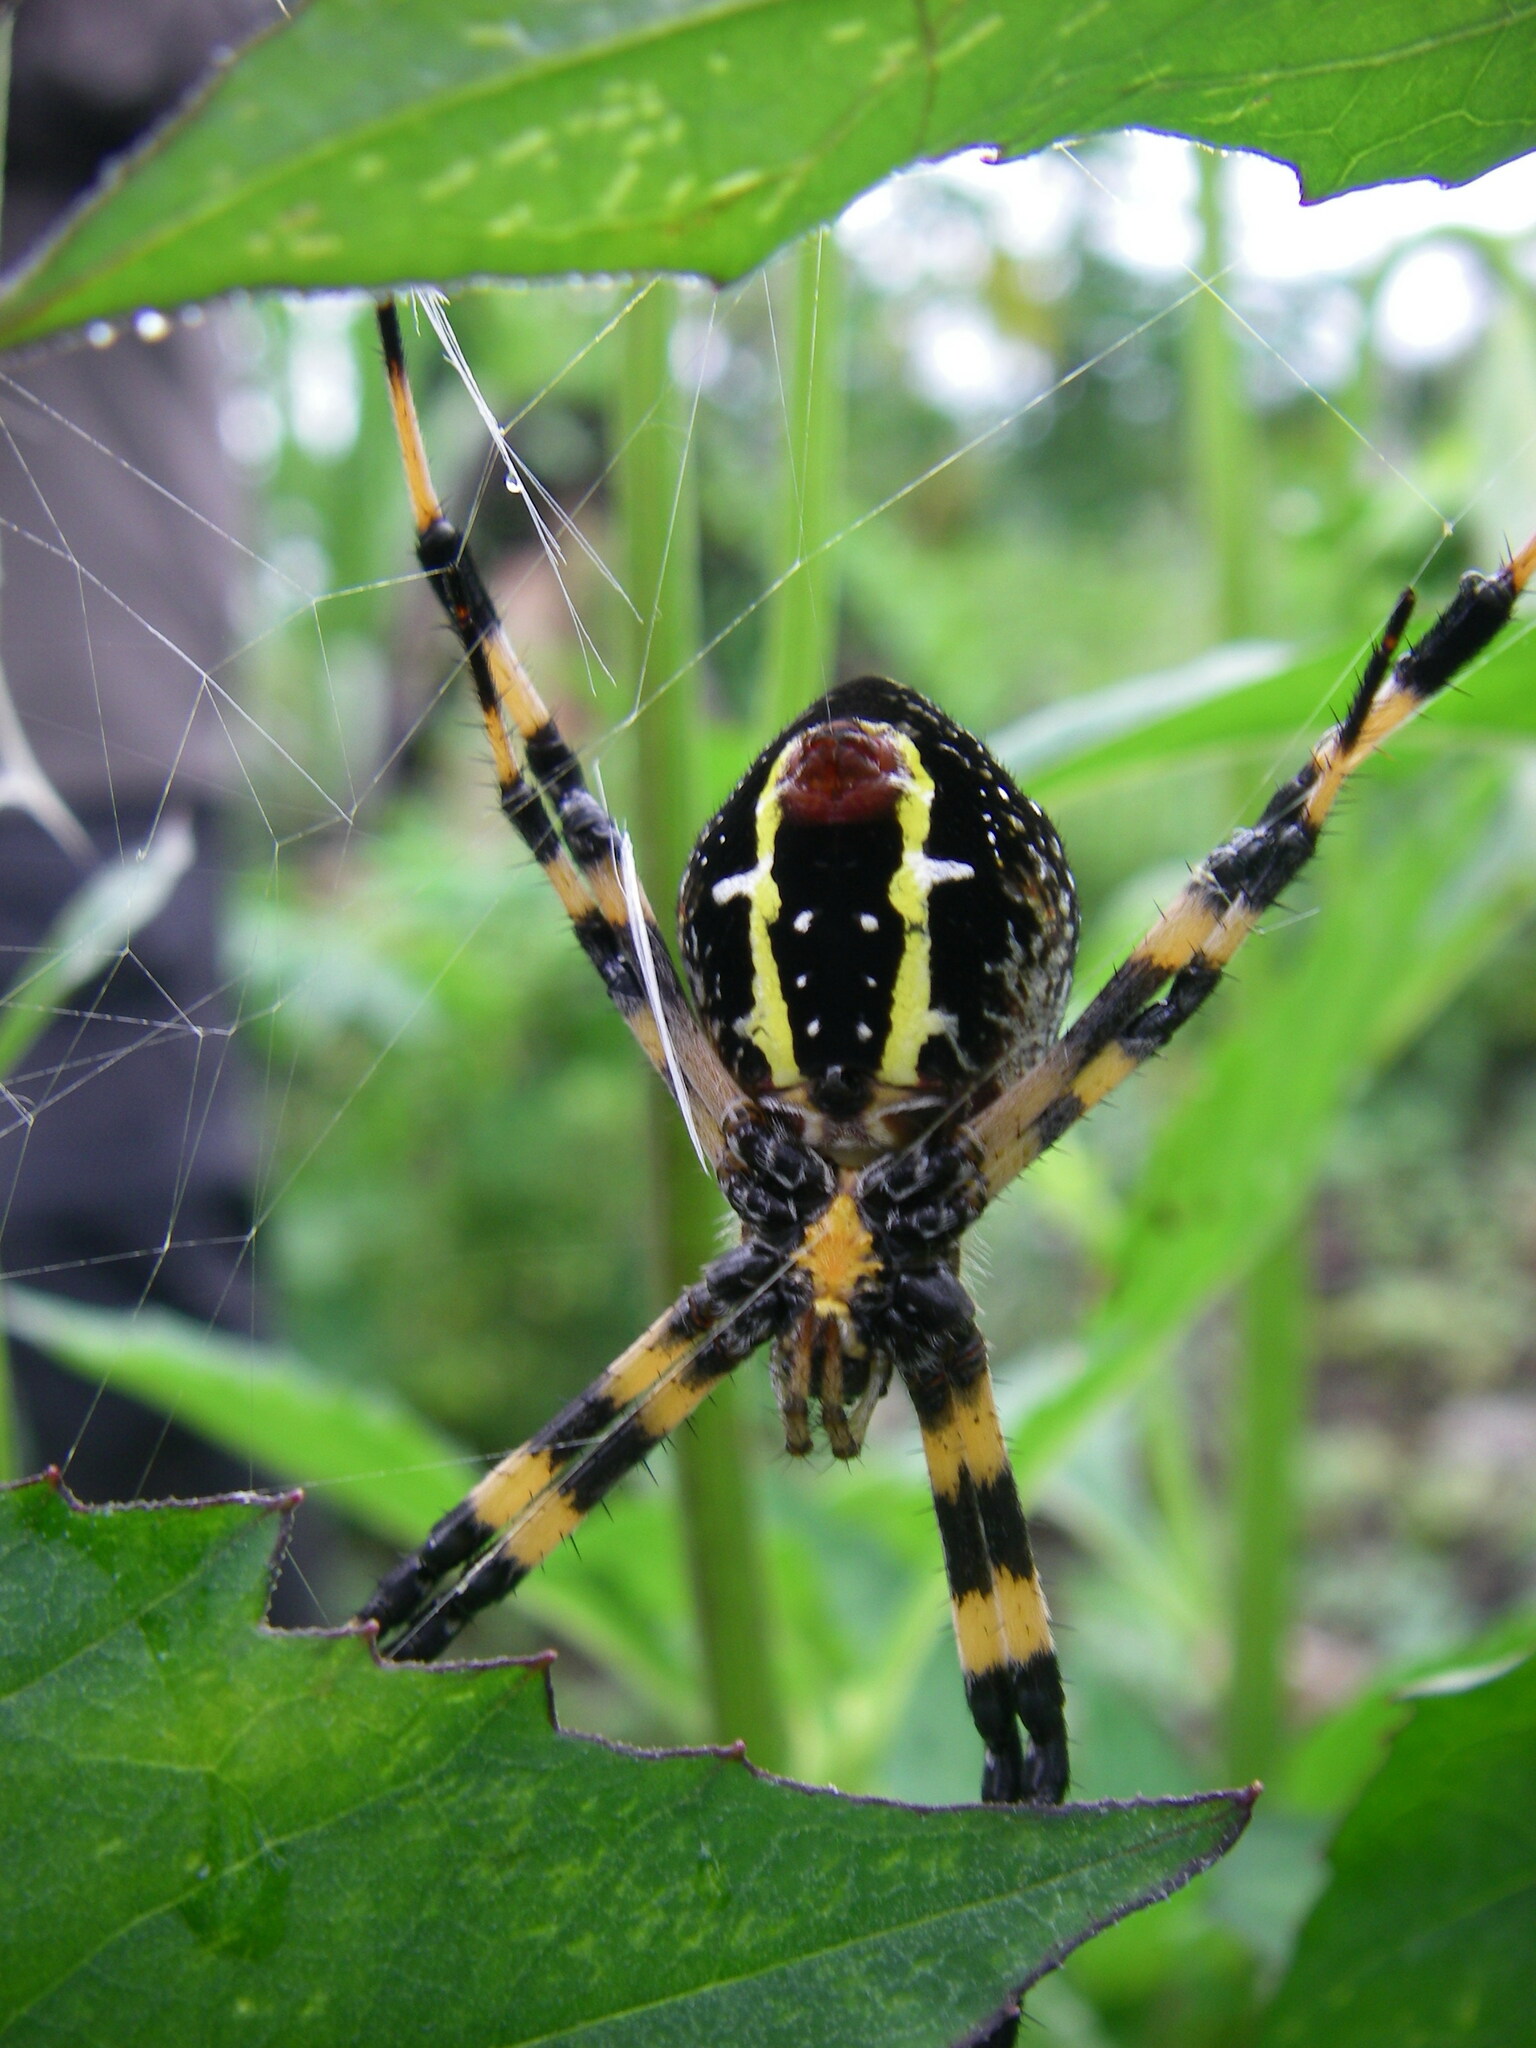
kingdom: Animalia
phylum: Arthropoda
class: Arachnida
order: Araneae
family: Araneidae
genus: Argiope
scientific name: Argiope picta
